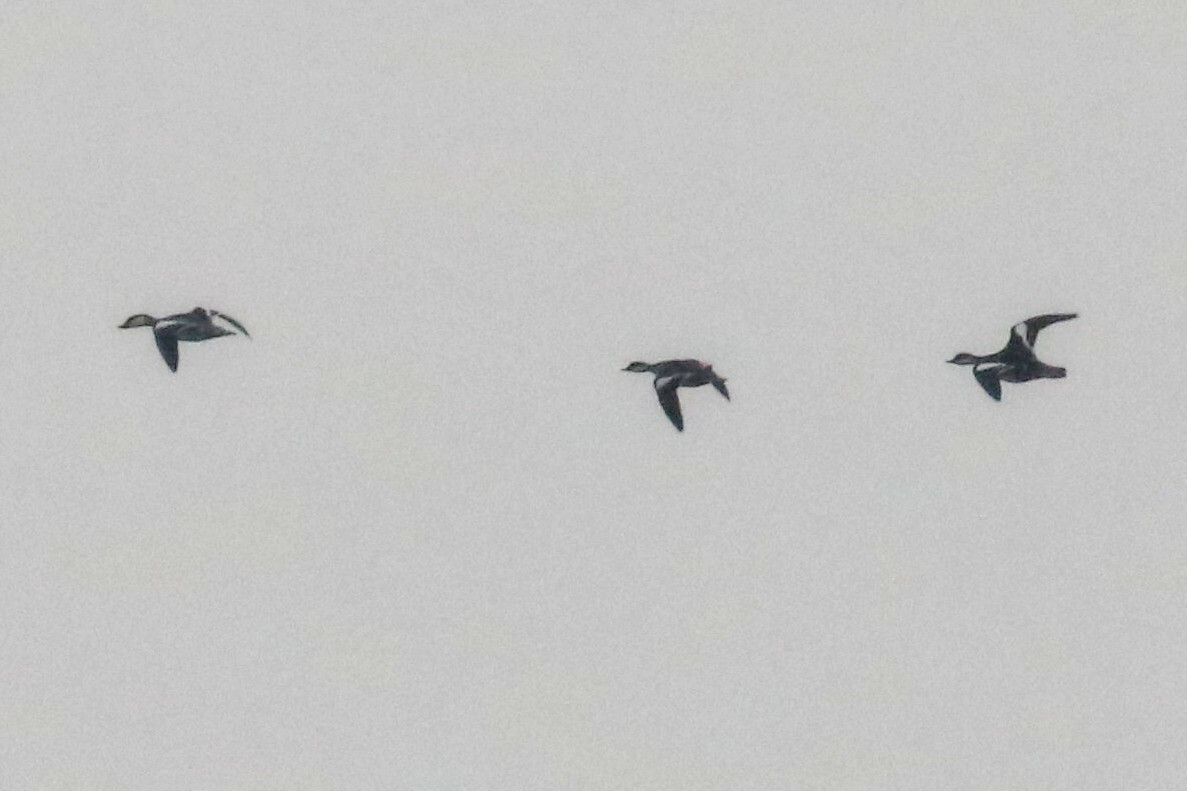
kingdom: Animalia
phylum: Chordata
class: Aves
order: Anseriformes
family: Anatidae
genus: Mergellus
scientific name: Mergellus albellus
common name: Smew
